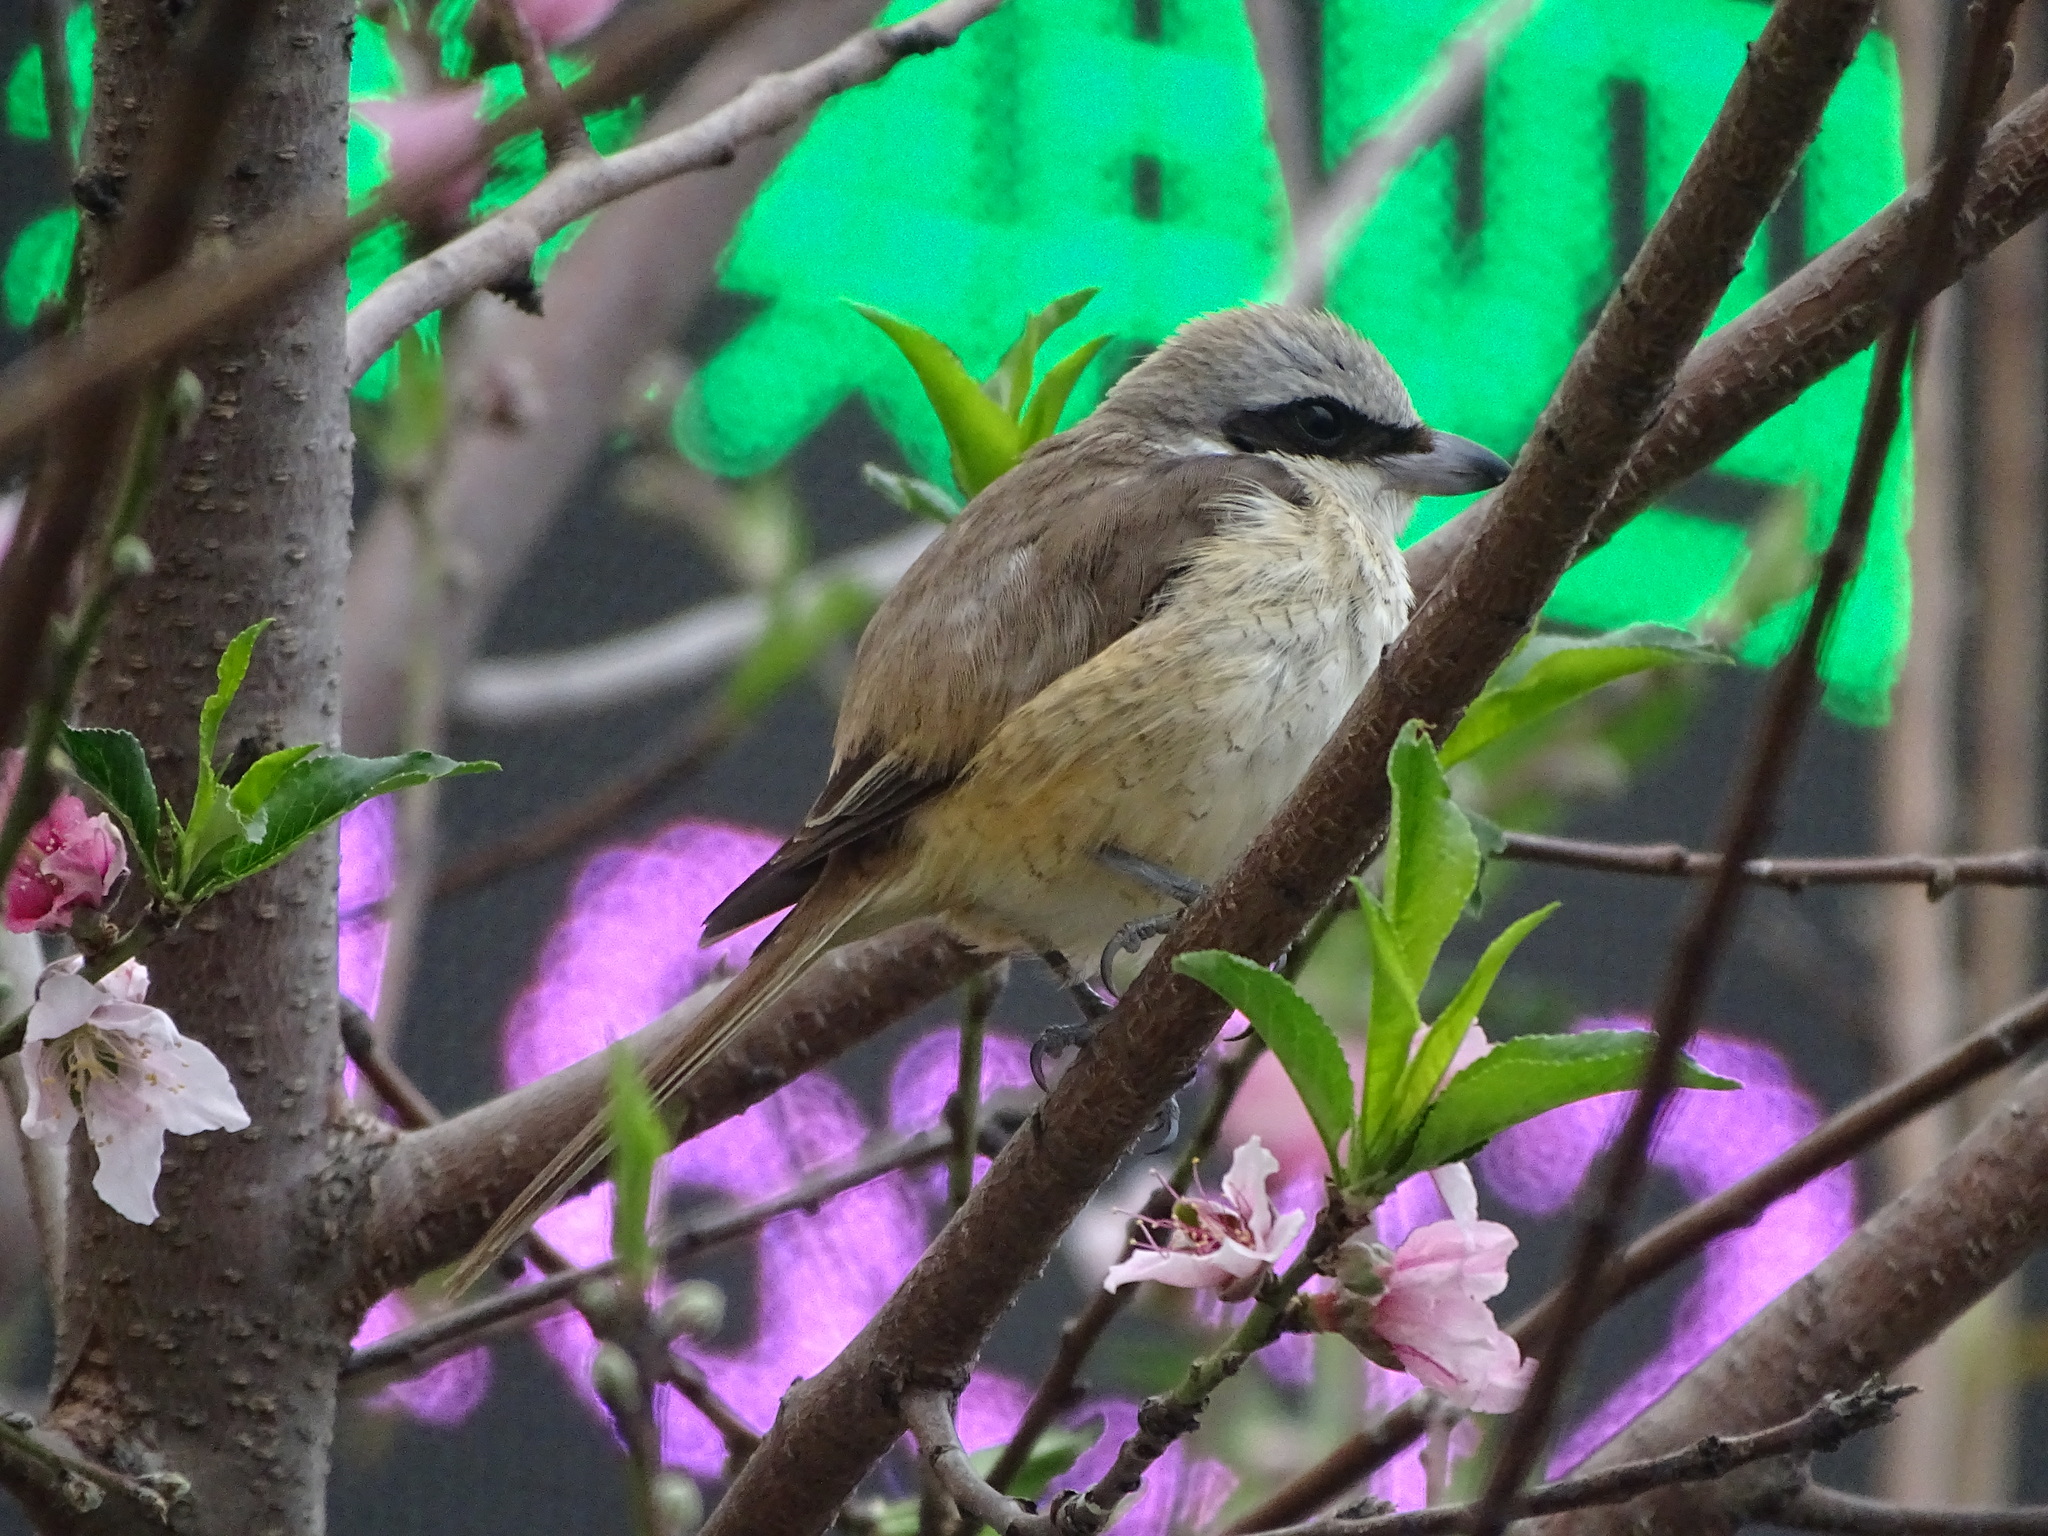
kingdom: Animalia
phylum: Chordata
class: Aves
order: Passeriformes
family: Laniidae
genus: Lanius
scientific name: Lanius cristatus
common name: Brown shrike
